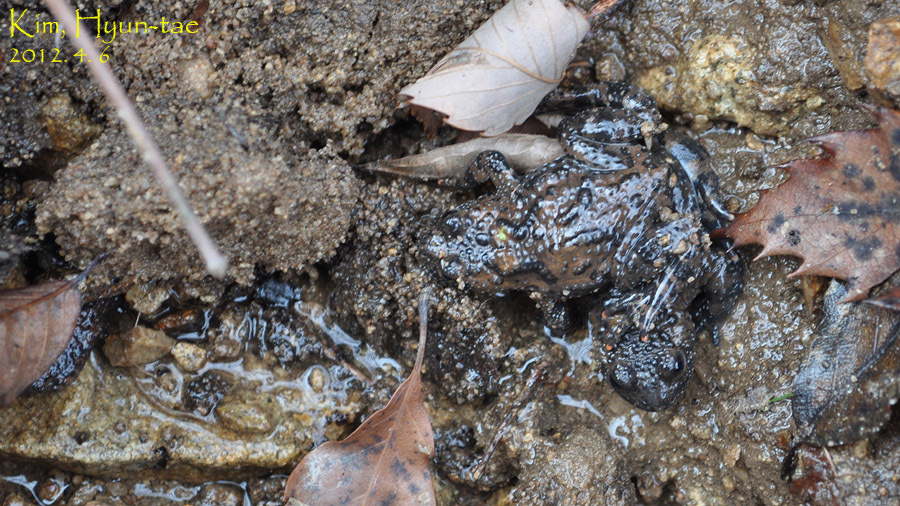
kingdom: Animalia
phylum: Chordata
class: Amphibia
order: Anura
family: Bombinatoridae
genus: Bombina
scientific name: Bombina orientalis
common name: Oriental firebelly toad
